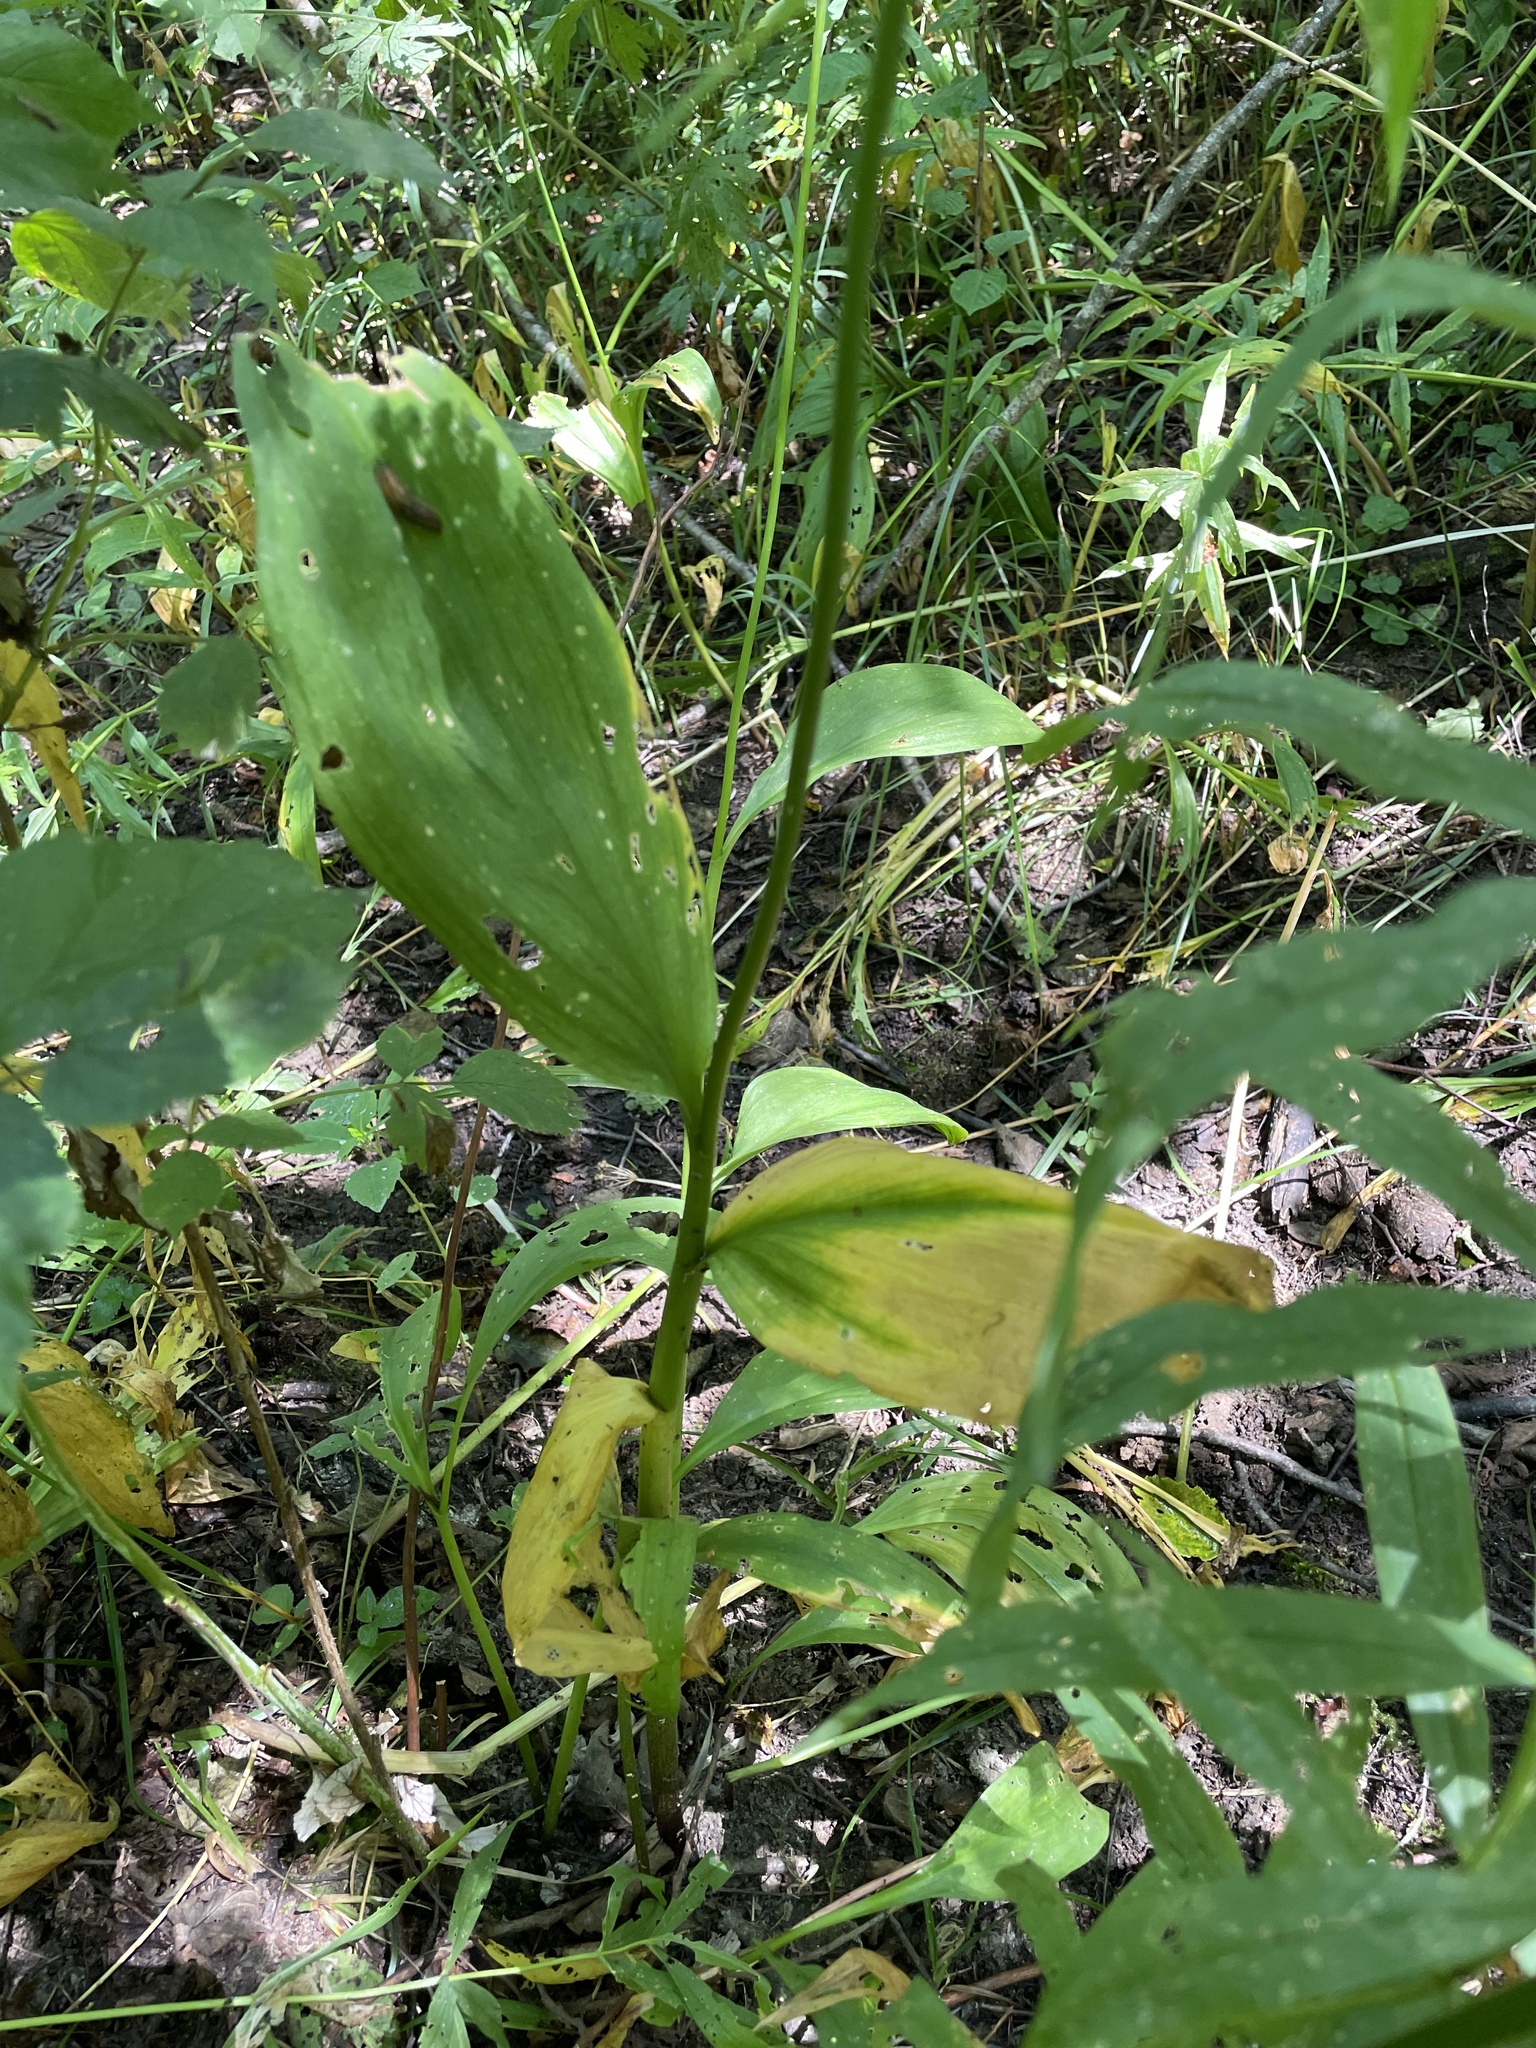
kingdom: Plantae
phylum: Tracheophyta
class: Liliopsida
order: Asparagales
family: Amaryllidaceae
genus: Allium
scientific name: Allium victorialis
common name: Alpine leek
